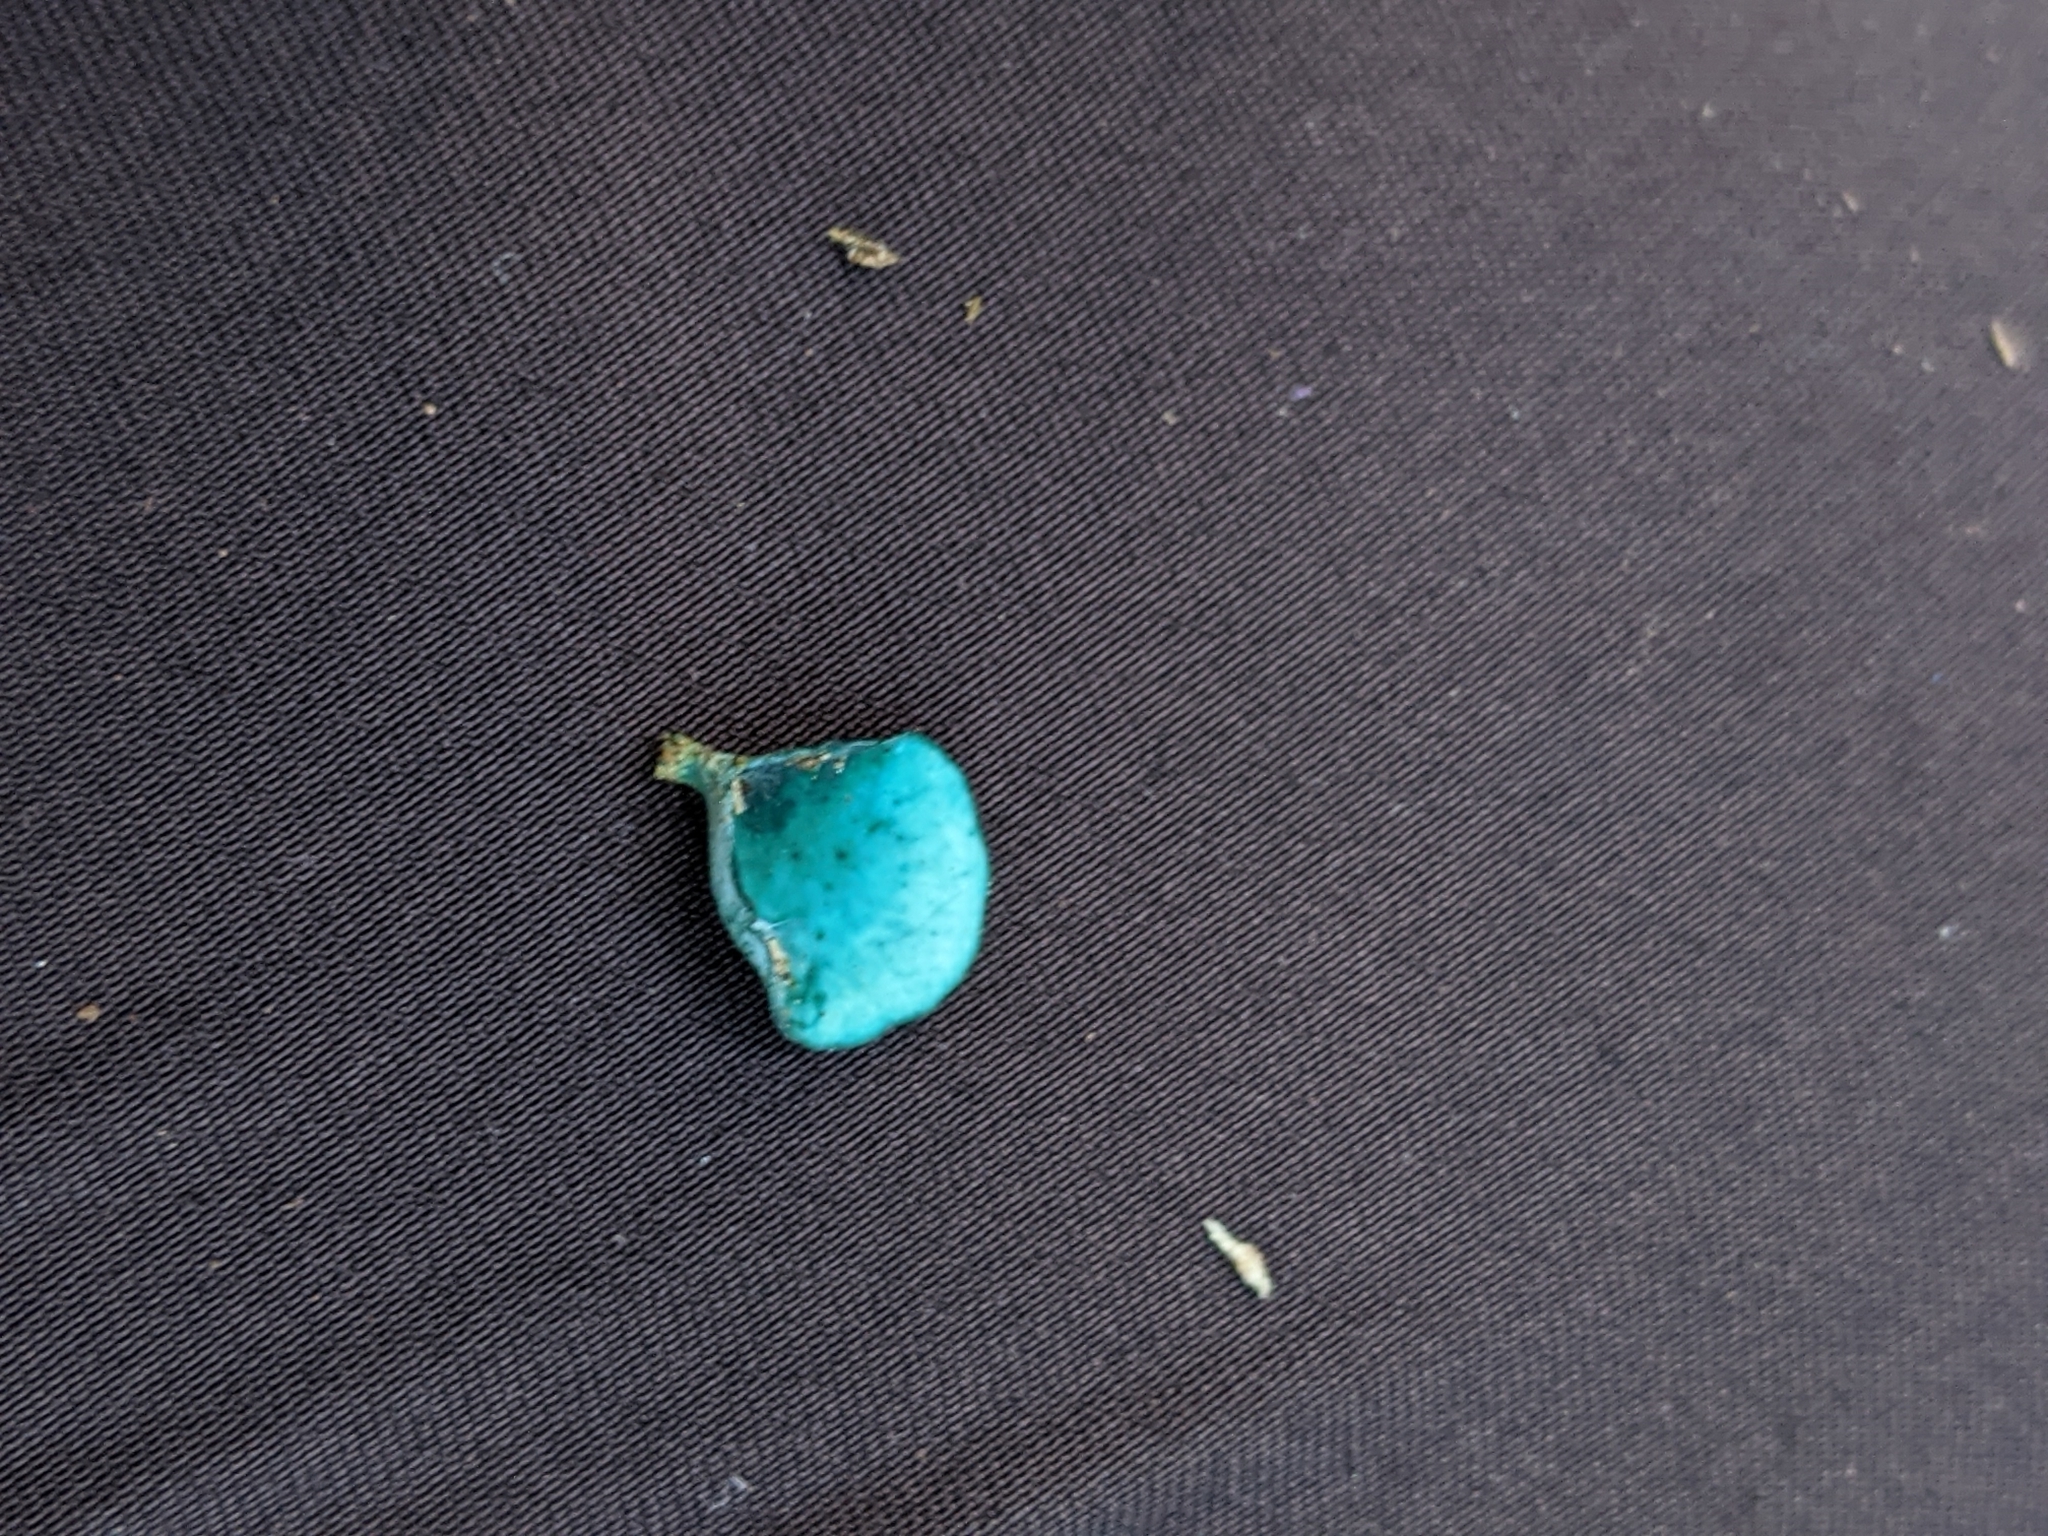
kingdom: Fungi
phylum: Ascomycota
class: Leotiomycetes
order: Helotiales
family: Chlorociboriaceae
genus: Chlorociboria
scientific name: Chlorociboria aeruginascens
